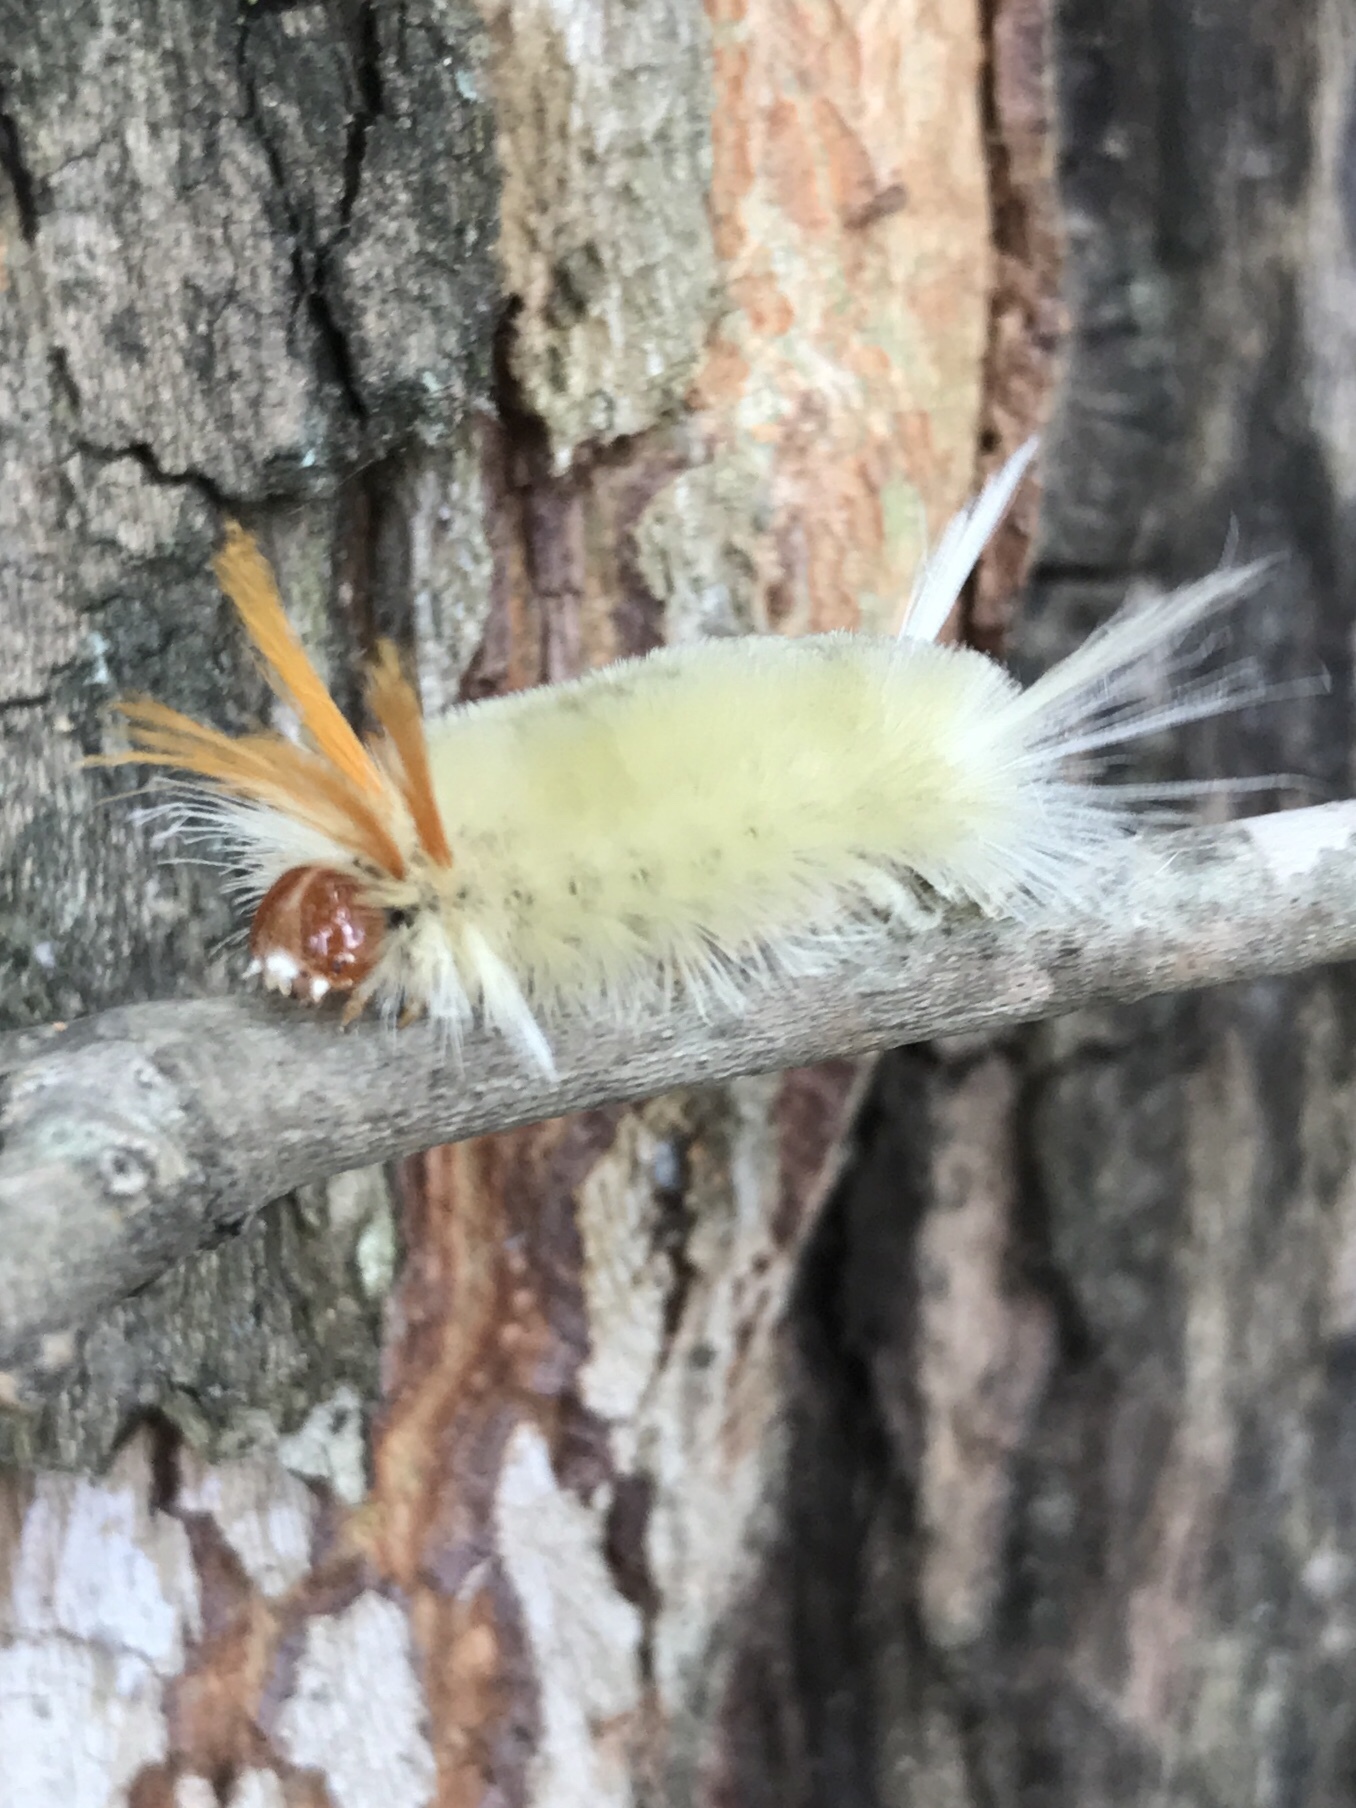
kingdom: Animalia
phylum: Arthropoda
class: Insecta
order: Lepidoptera
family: Erebidae
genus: Halysidota
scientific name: Halysidota harrisii
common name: Sycamore tussock moth
